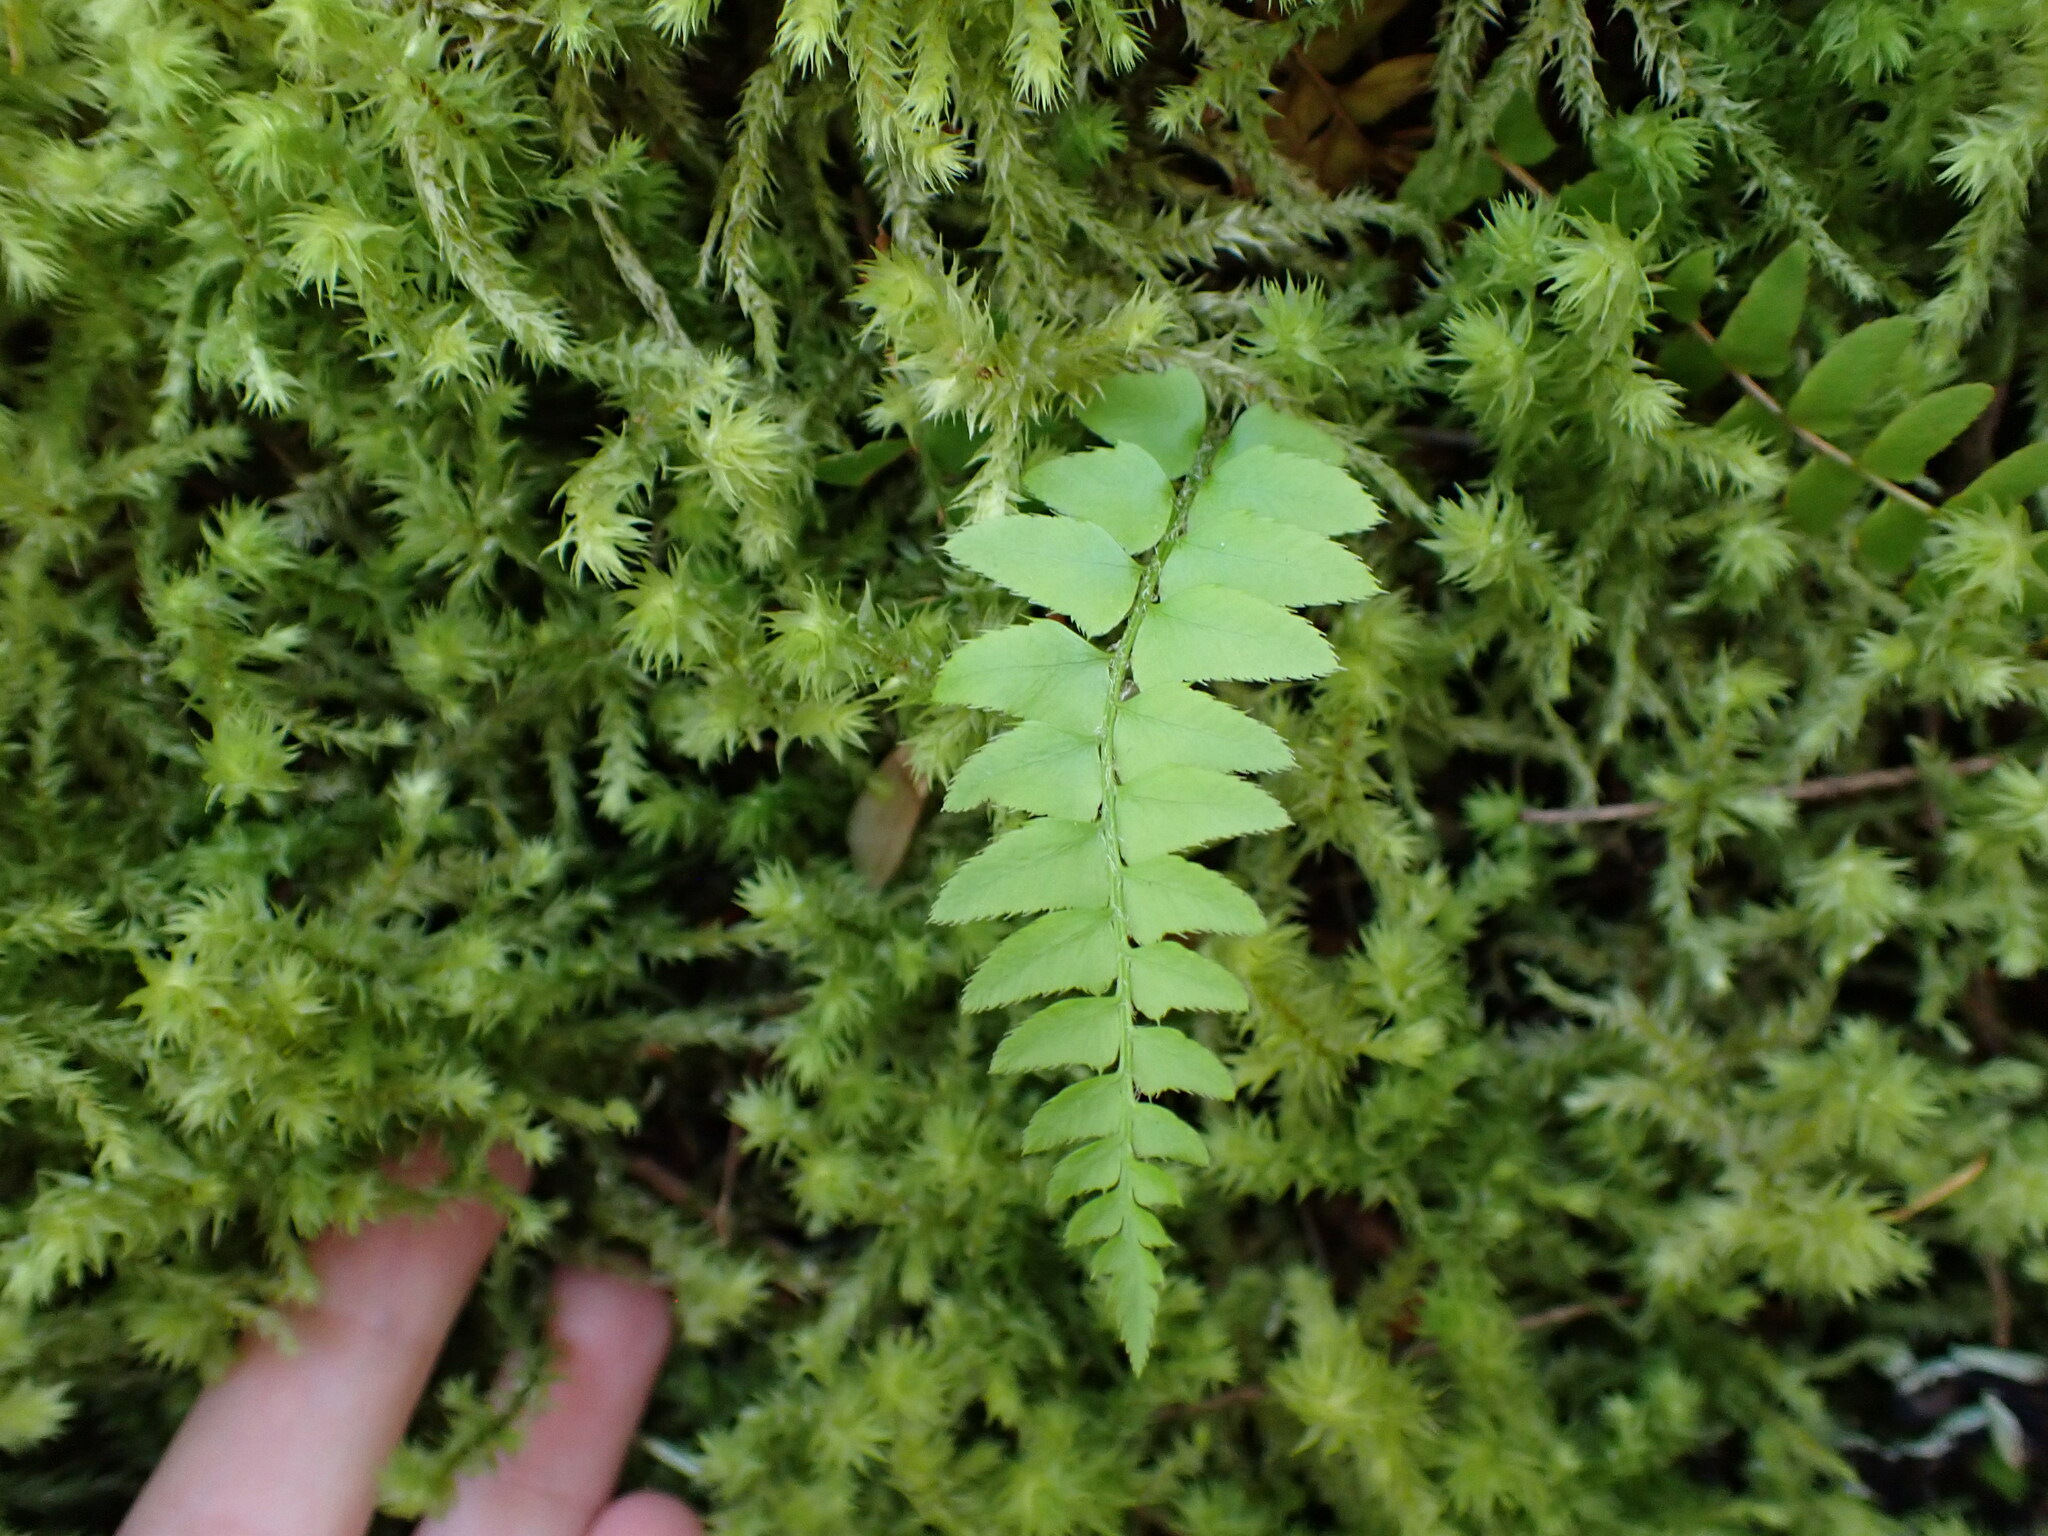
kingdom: Plantae
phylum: Tracheophyta
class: Polypodiopsida
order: Polypodiales
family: Dryopteridaceae
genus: Polystichum
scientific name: Polystichum munitum
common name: Western sword-fern
